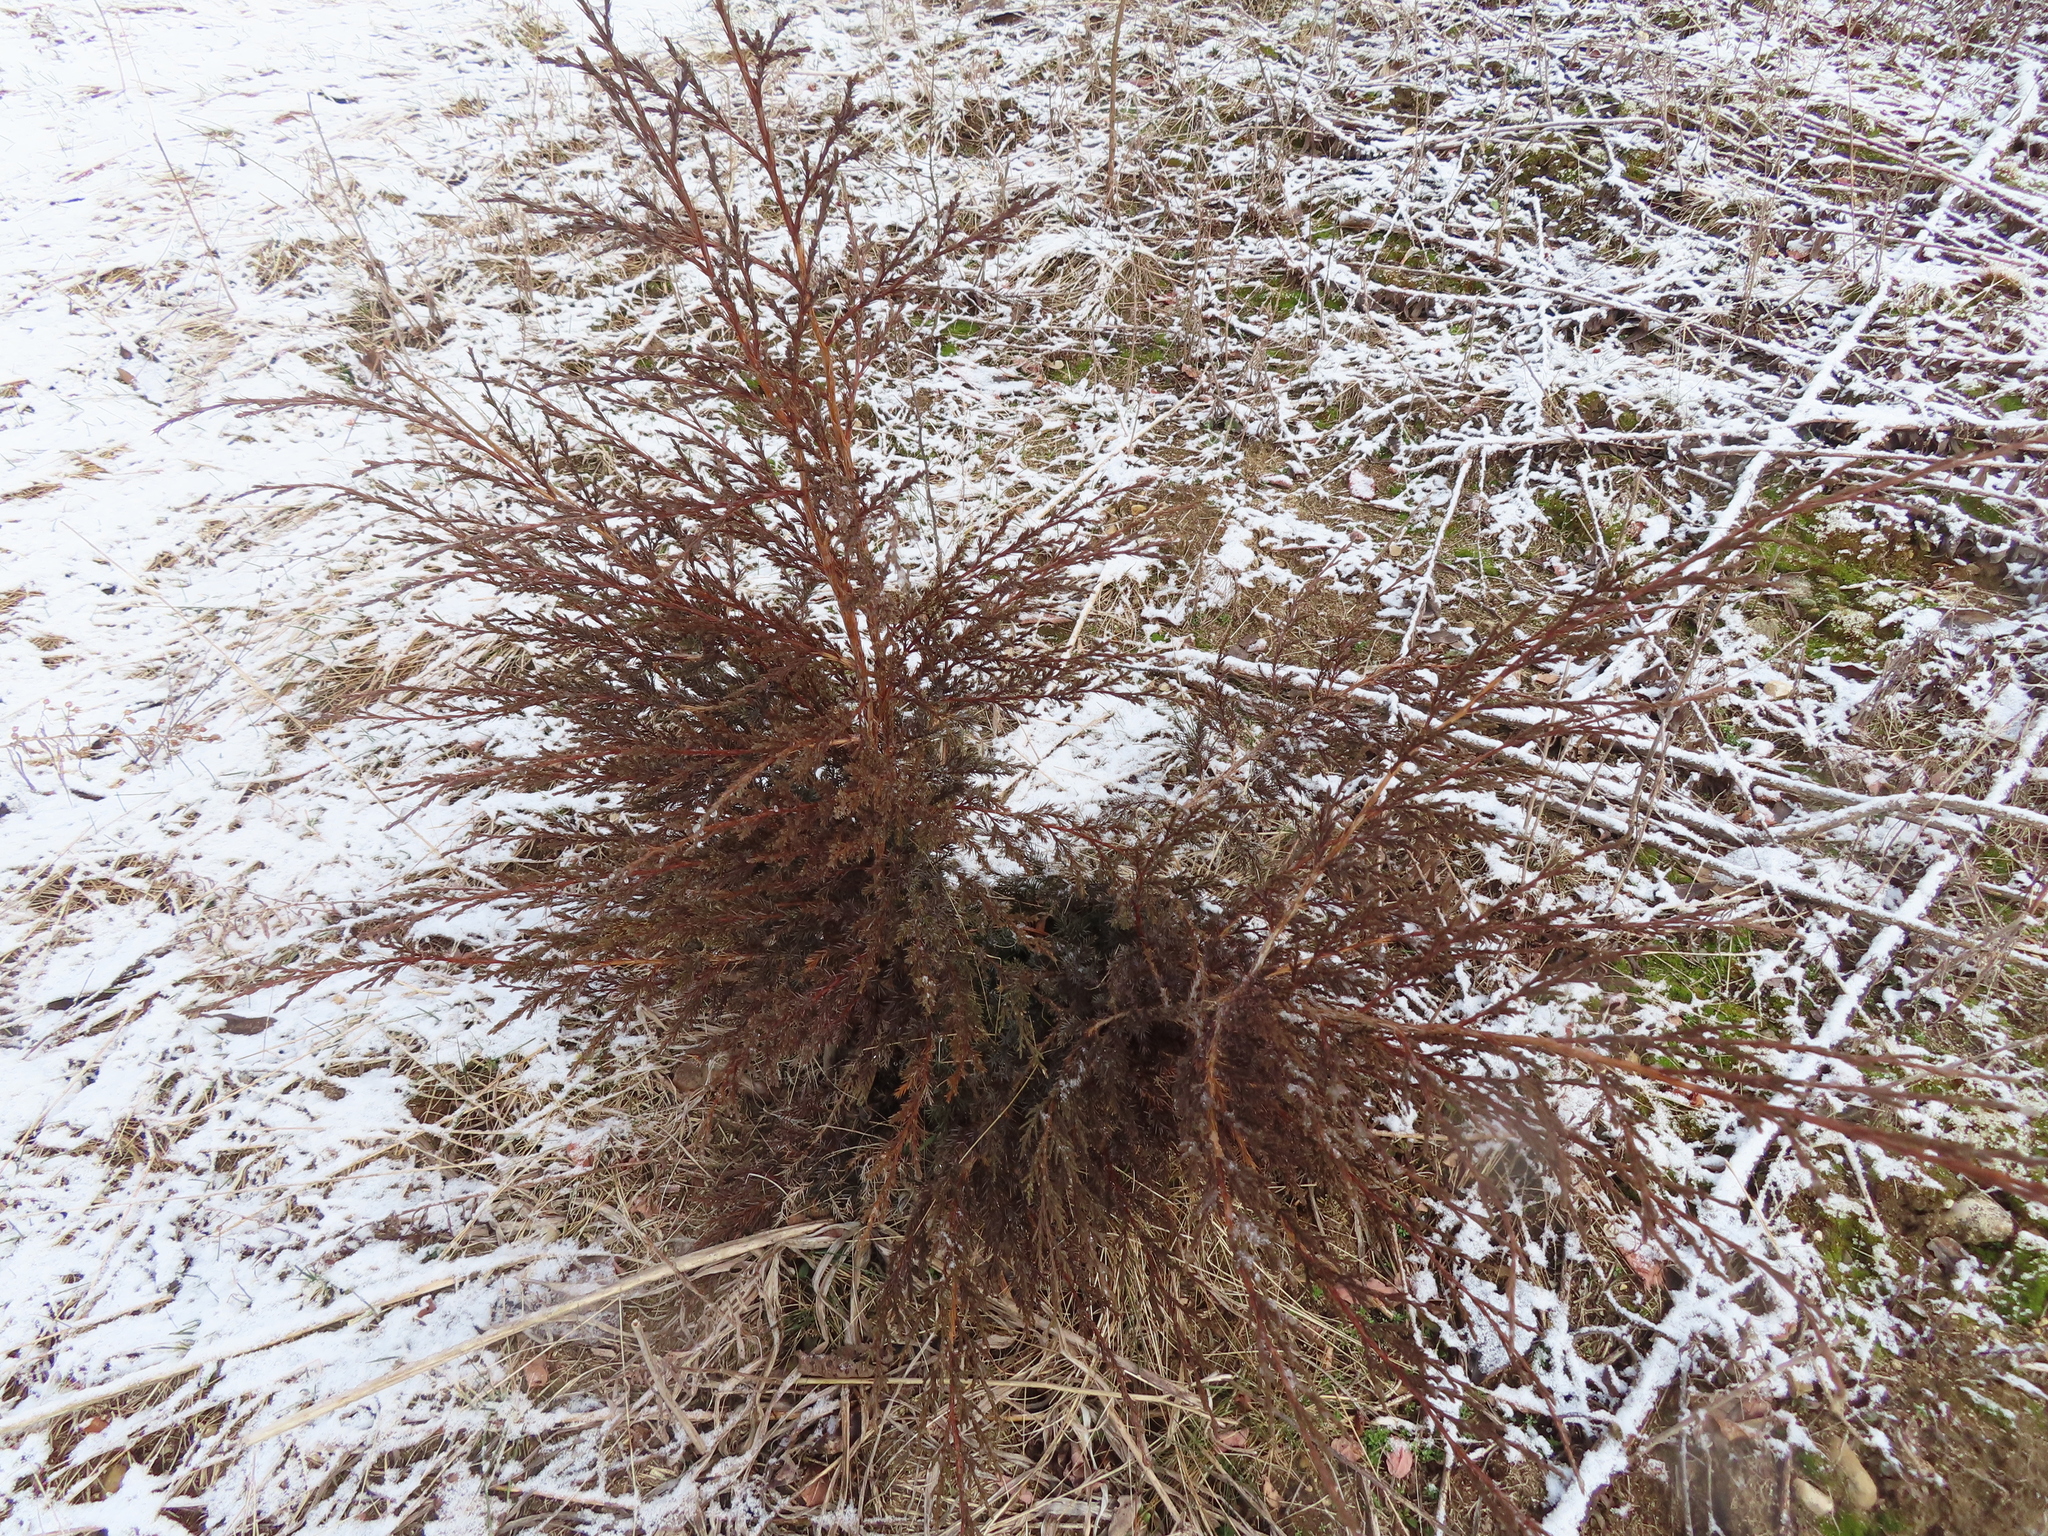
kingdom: Plantae
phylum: Tracheophyta
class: Pinopsida
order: Pinales
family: Cupressaceae
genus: Juniperus
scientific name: Juniperus virginiana
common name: Red juniper
